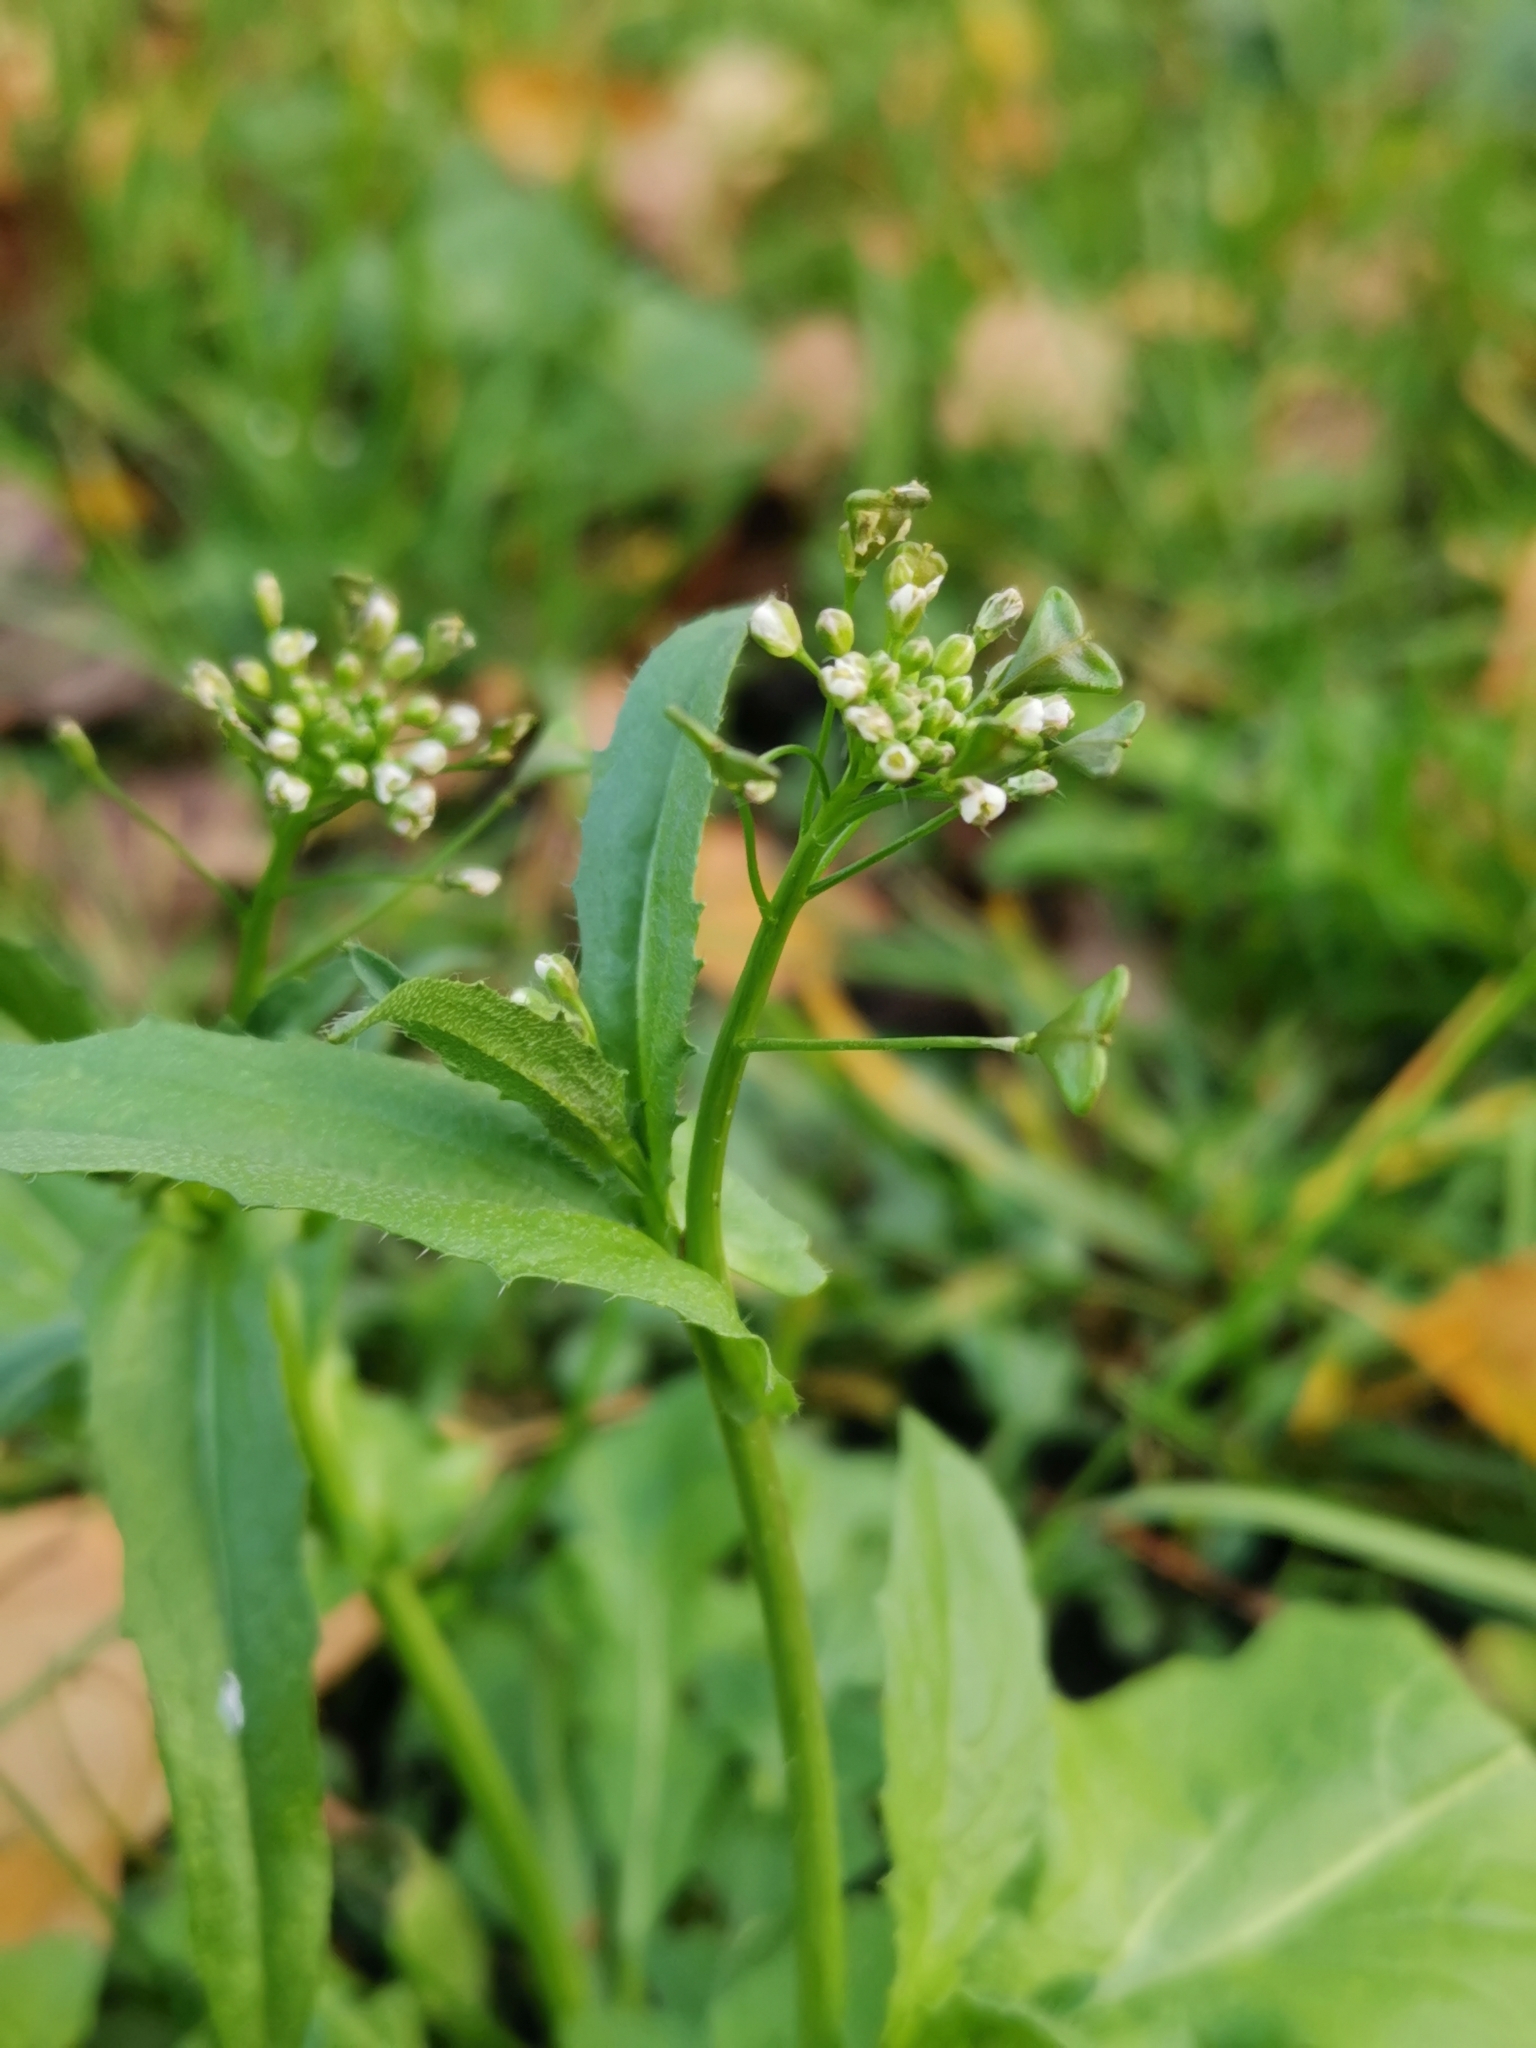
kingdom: Plantae
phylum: Tracheophyta
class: Magnoliopsida
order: Brassicales
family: Brassicaceae
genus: Capsella
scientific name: Capsella bursa-pastoris
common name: Shepherd's purse
